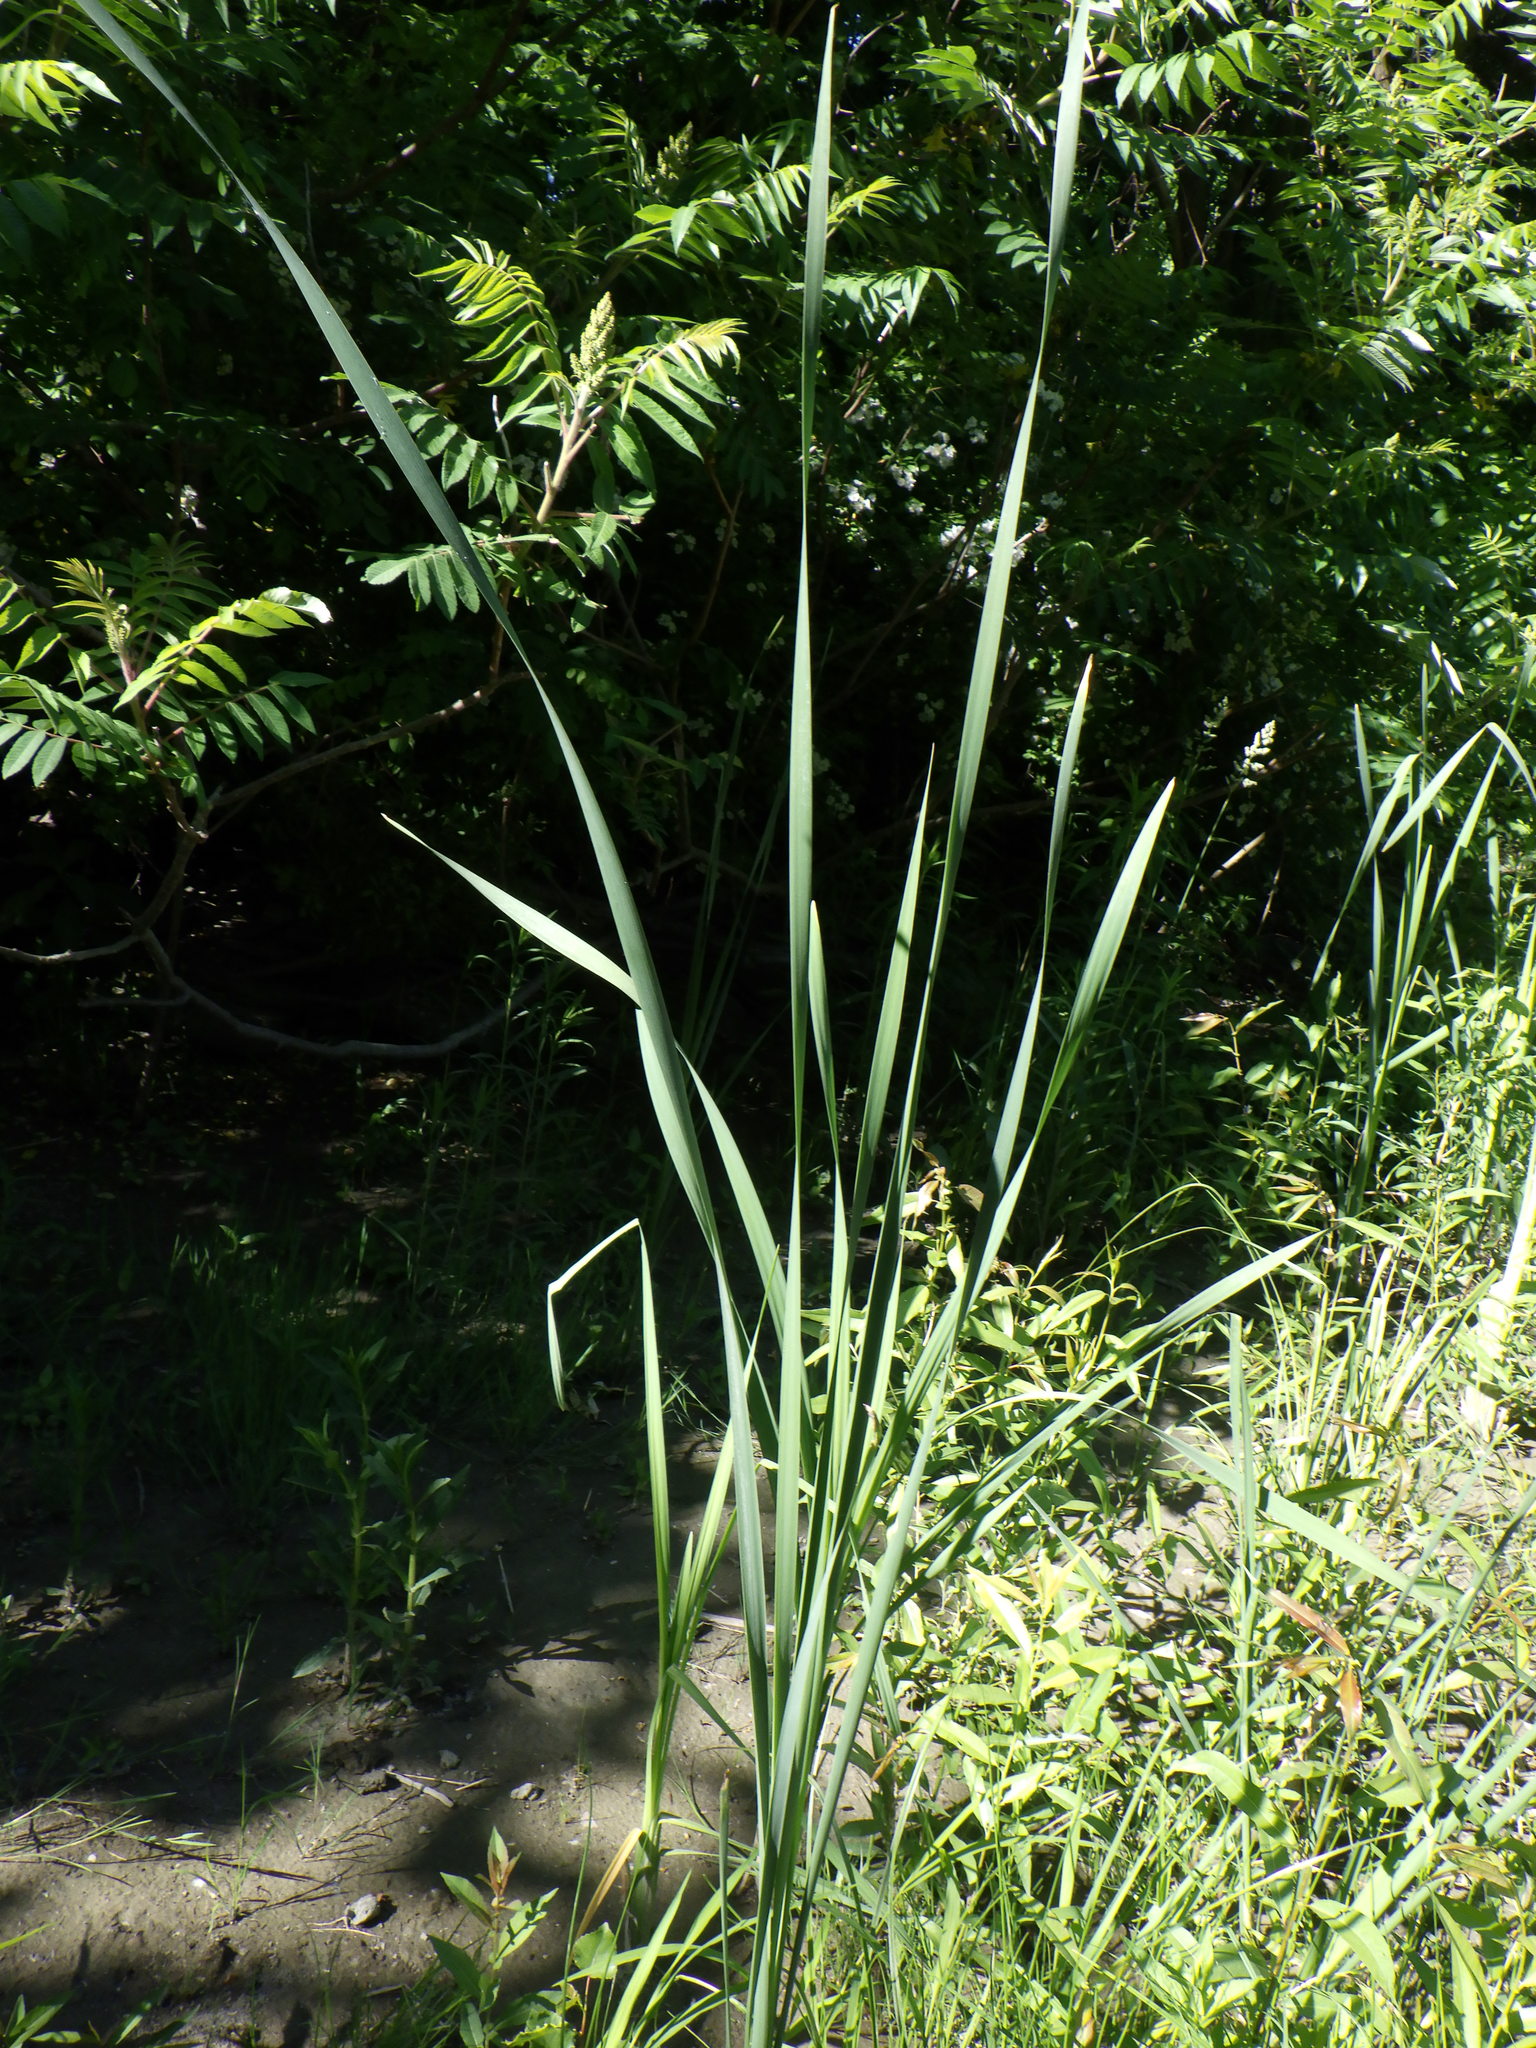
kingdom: Plantae
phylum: Tracheophyta
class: Liliopsida
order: Poales
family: Typhaceae
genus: Typha
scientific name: Typha angustifolia
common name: Lesser bulrush
